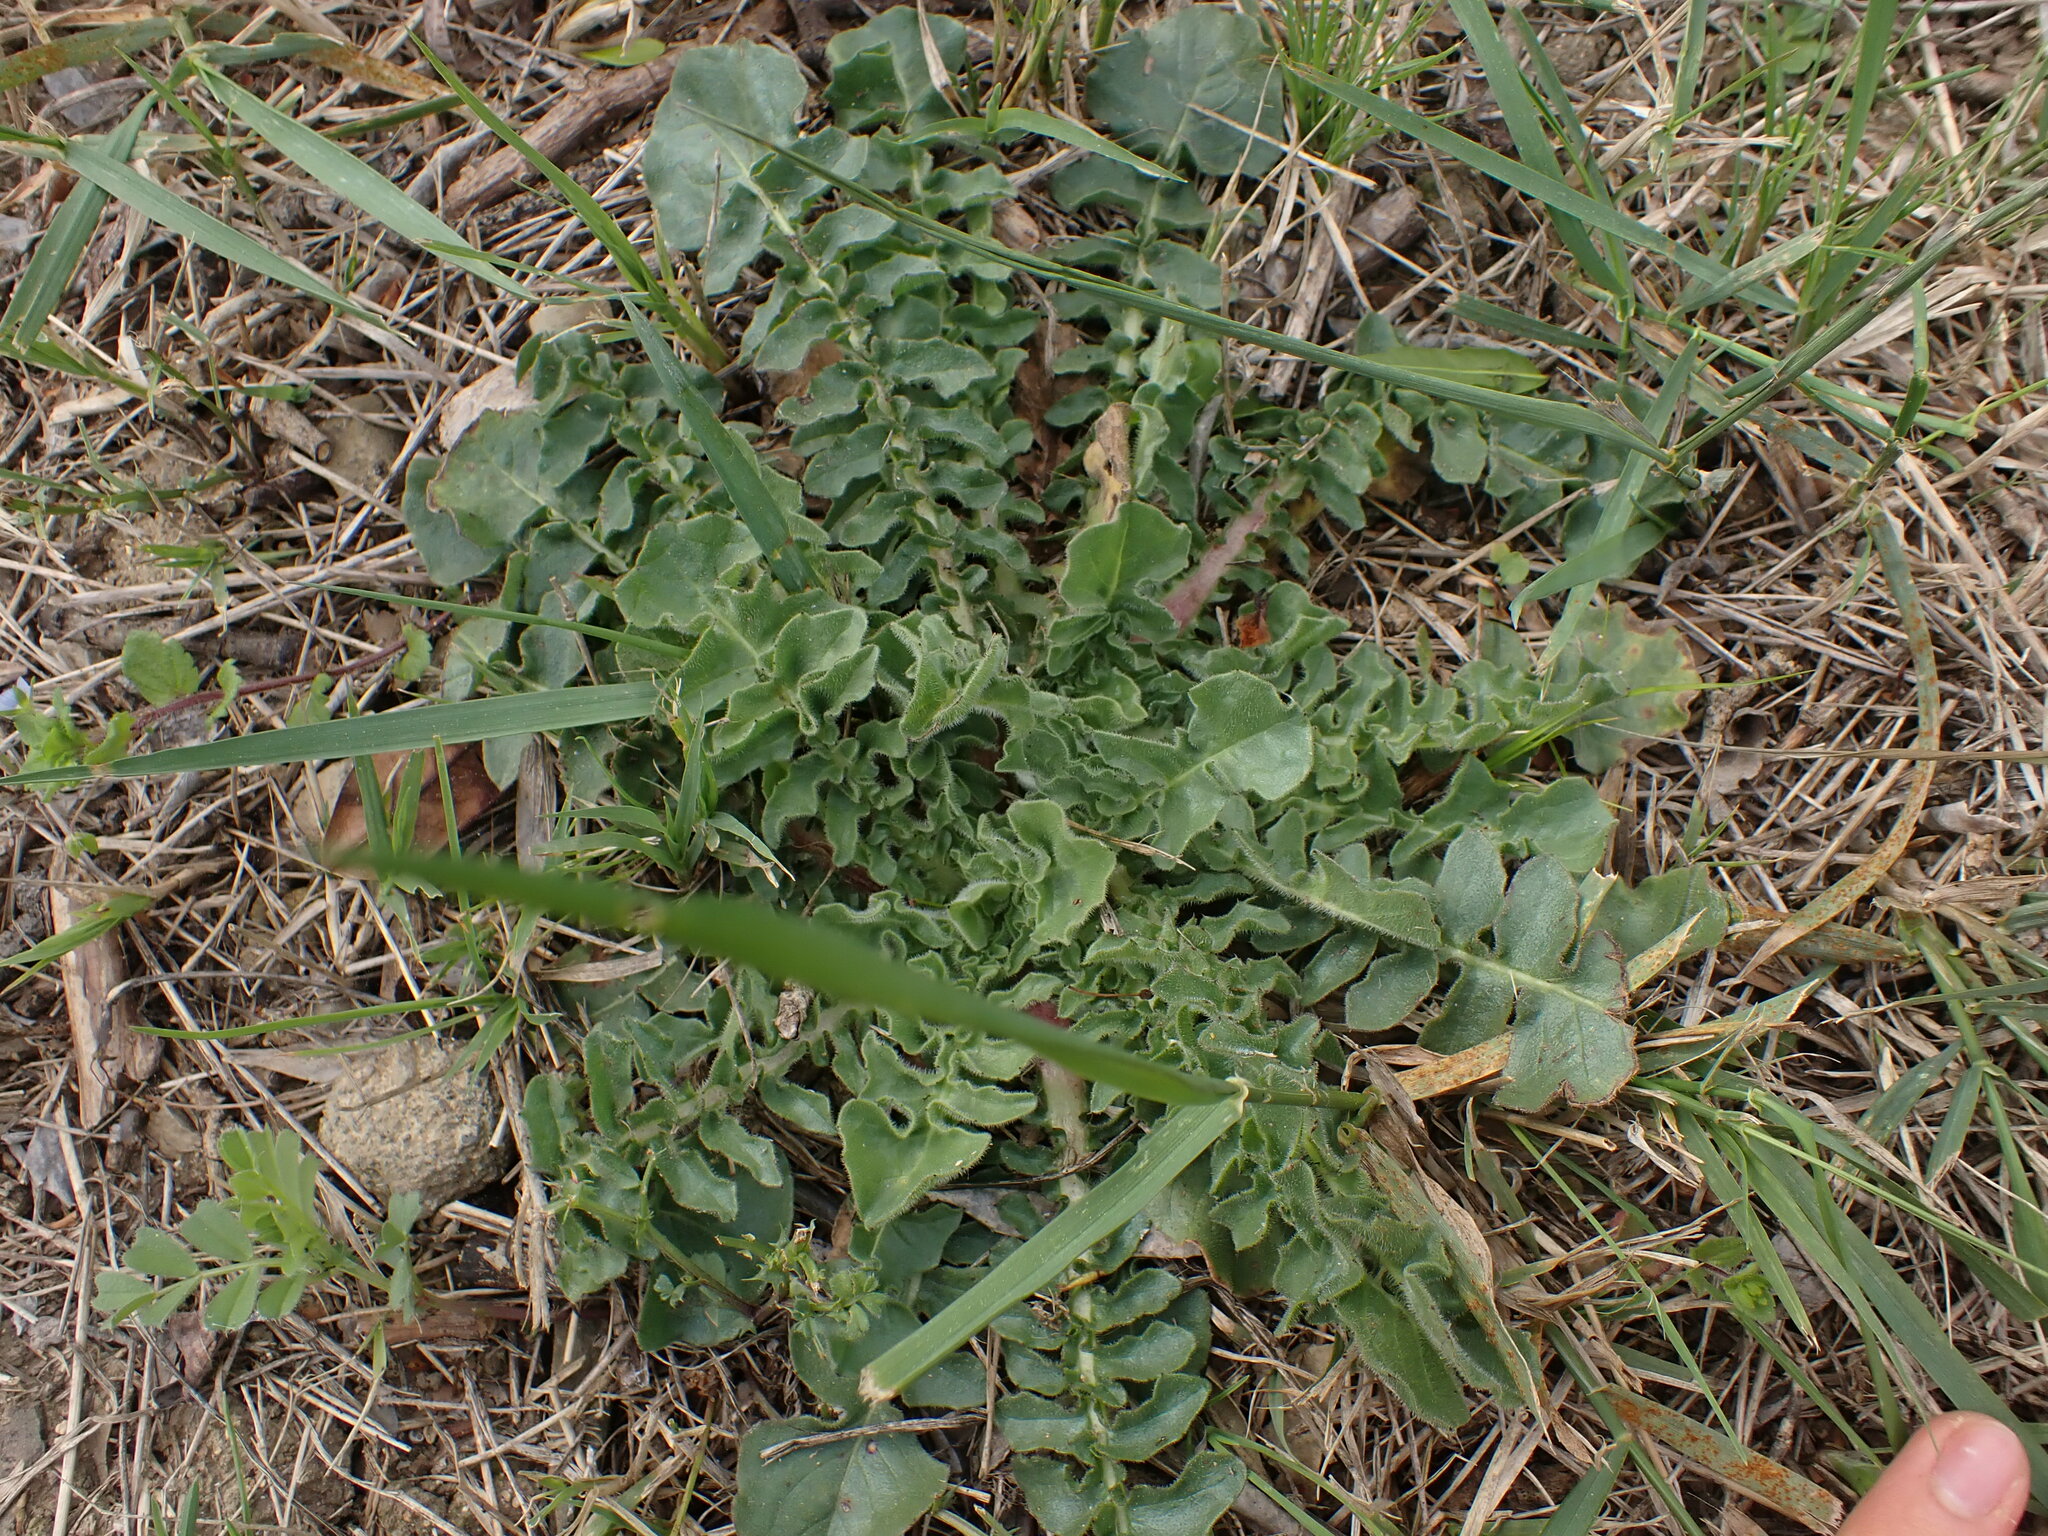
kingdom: Plantae
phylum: Tracheophyta
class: Magnoliopsida
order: Asterales
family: Asteraceae
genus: Urospermum
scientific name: Urospermum dalechampii
